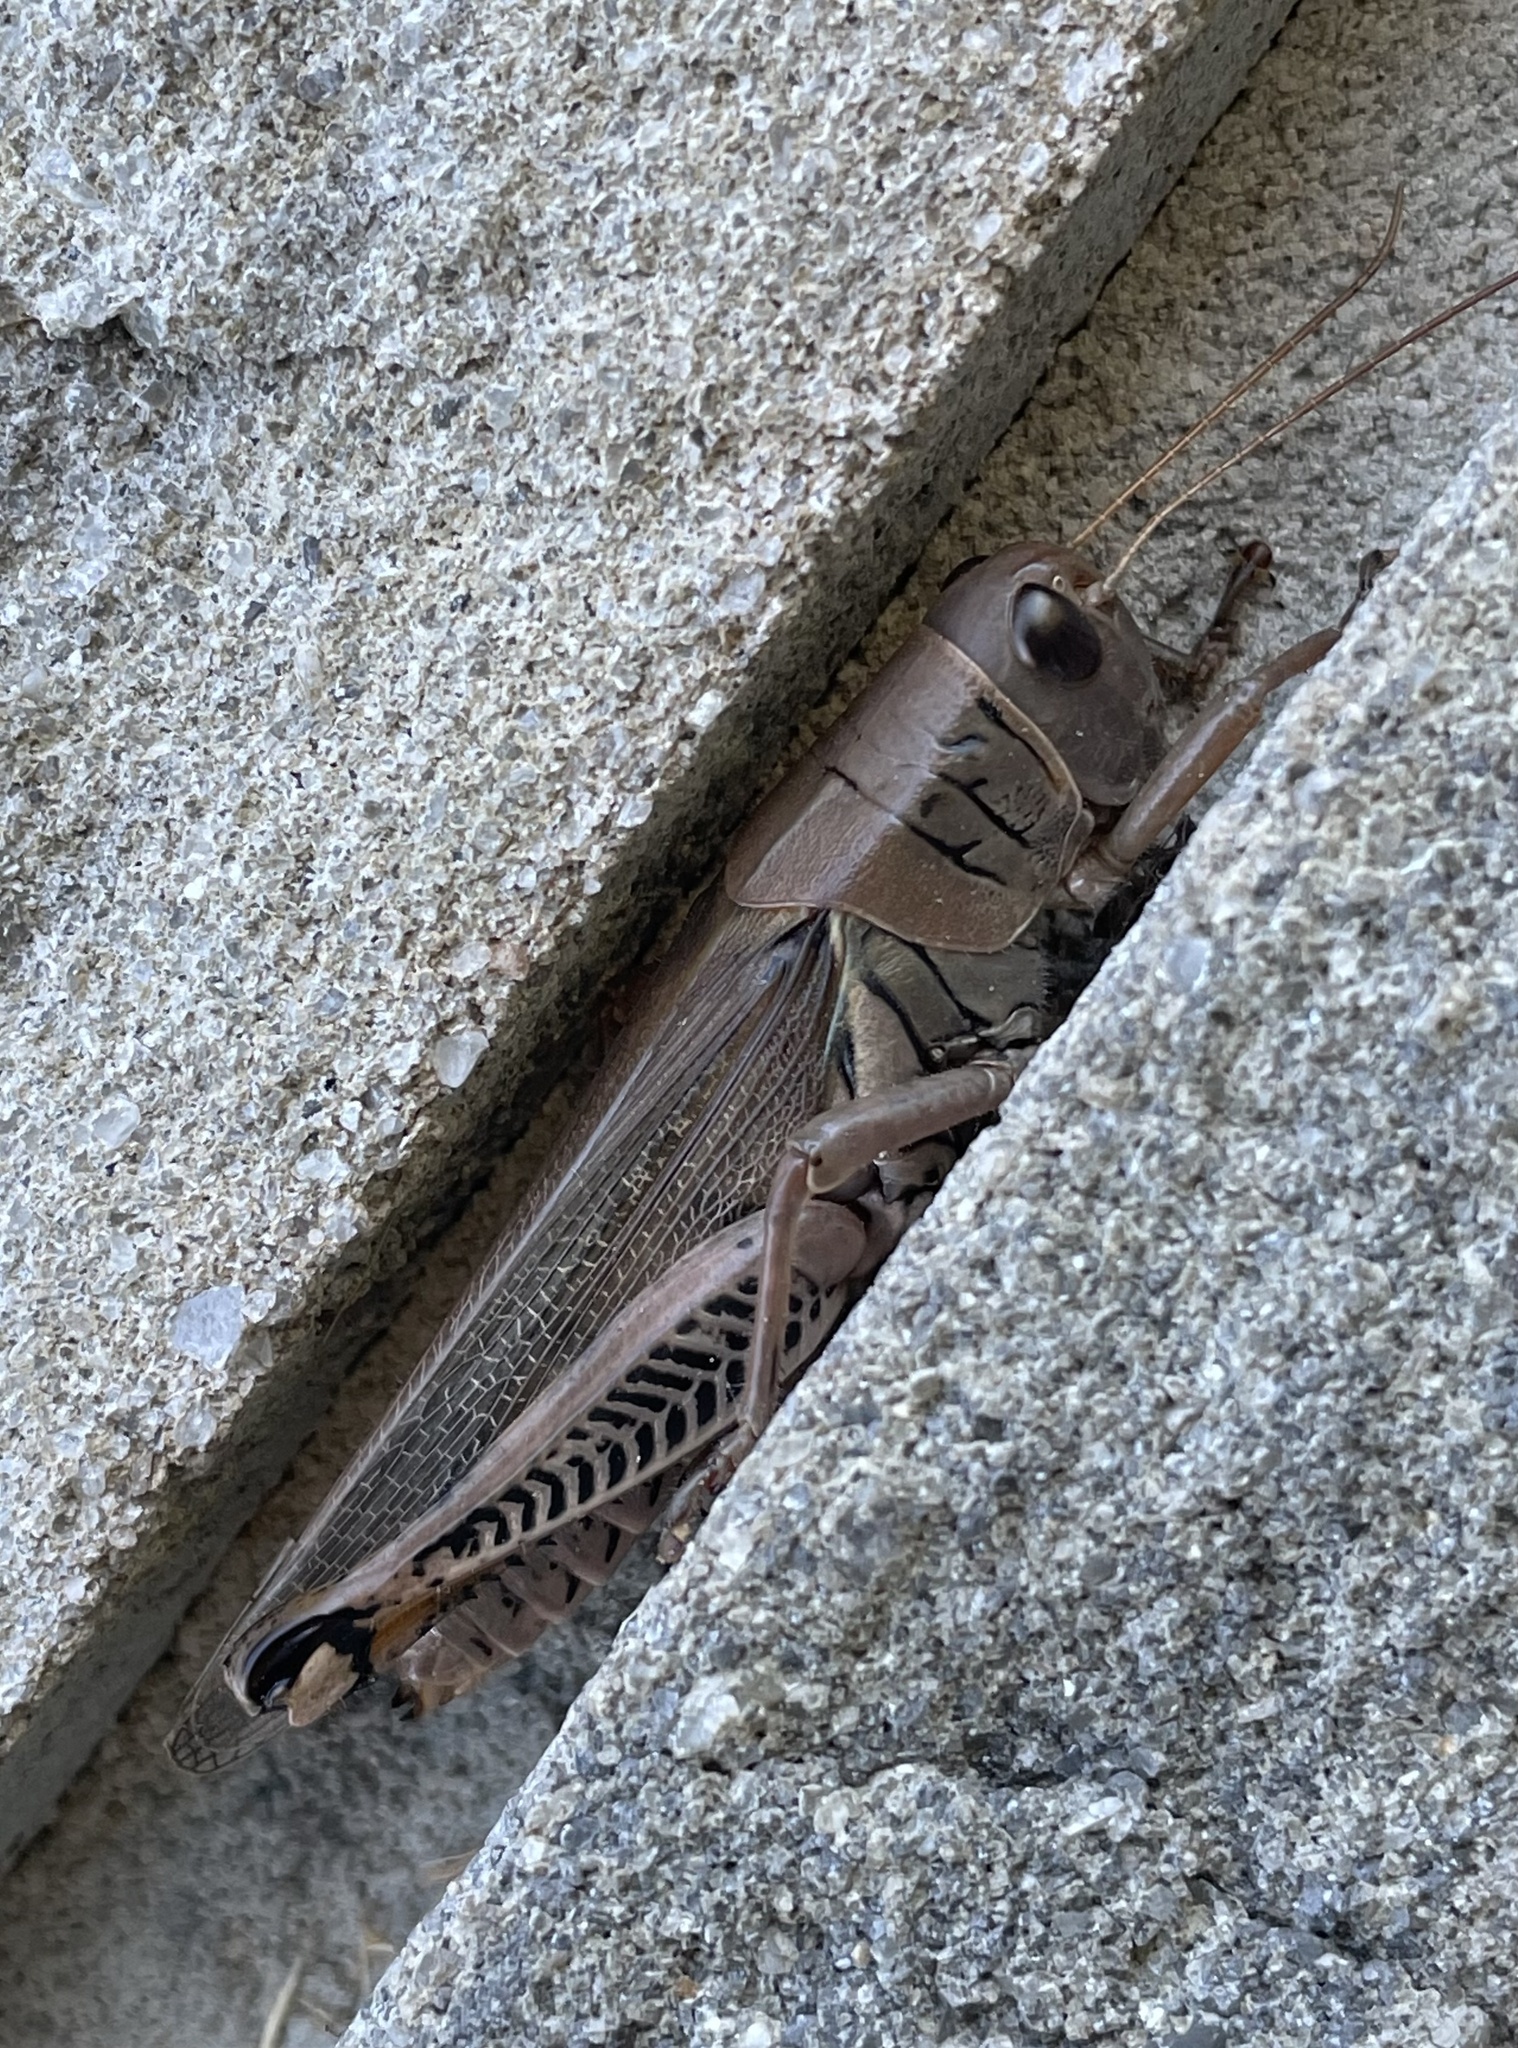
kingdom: Animalia
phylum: Arthropoda
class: Insecta
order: Orthoptera
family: Acrididae
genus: Melanoplus
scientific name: Melanoplus differentialis
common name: Differential grasshopper
